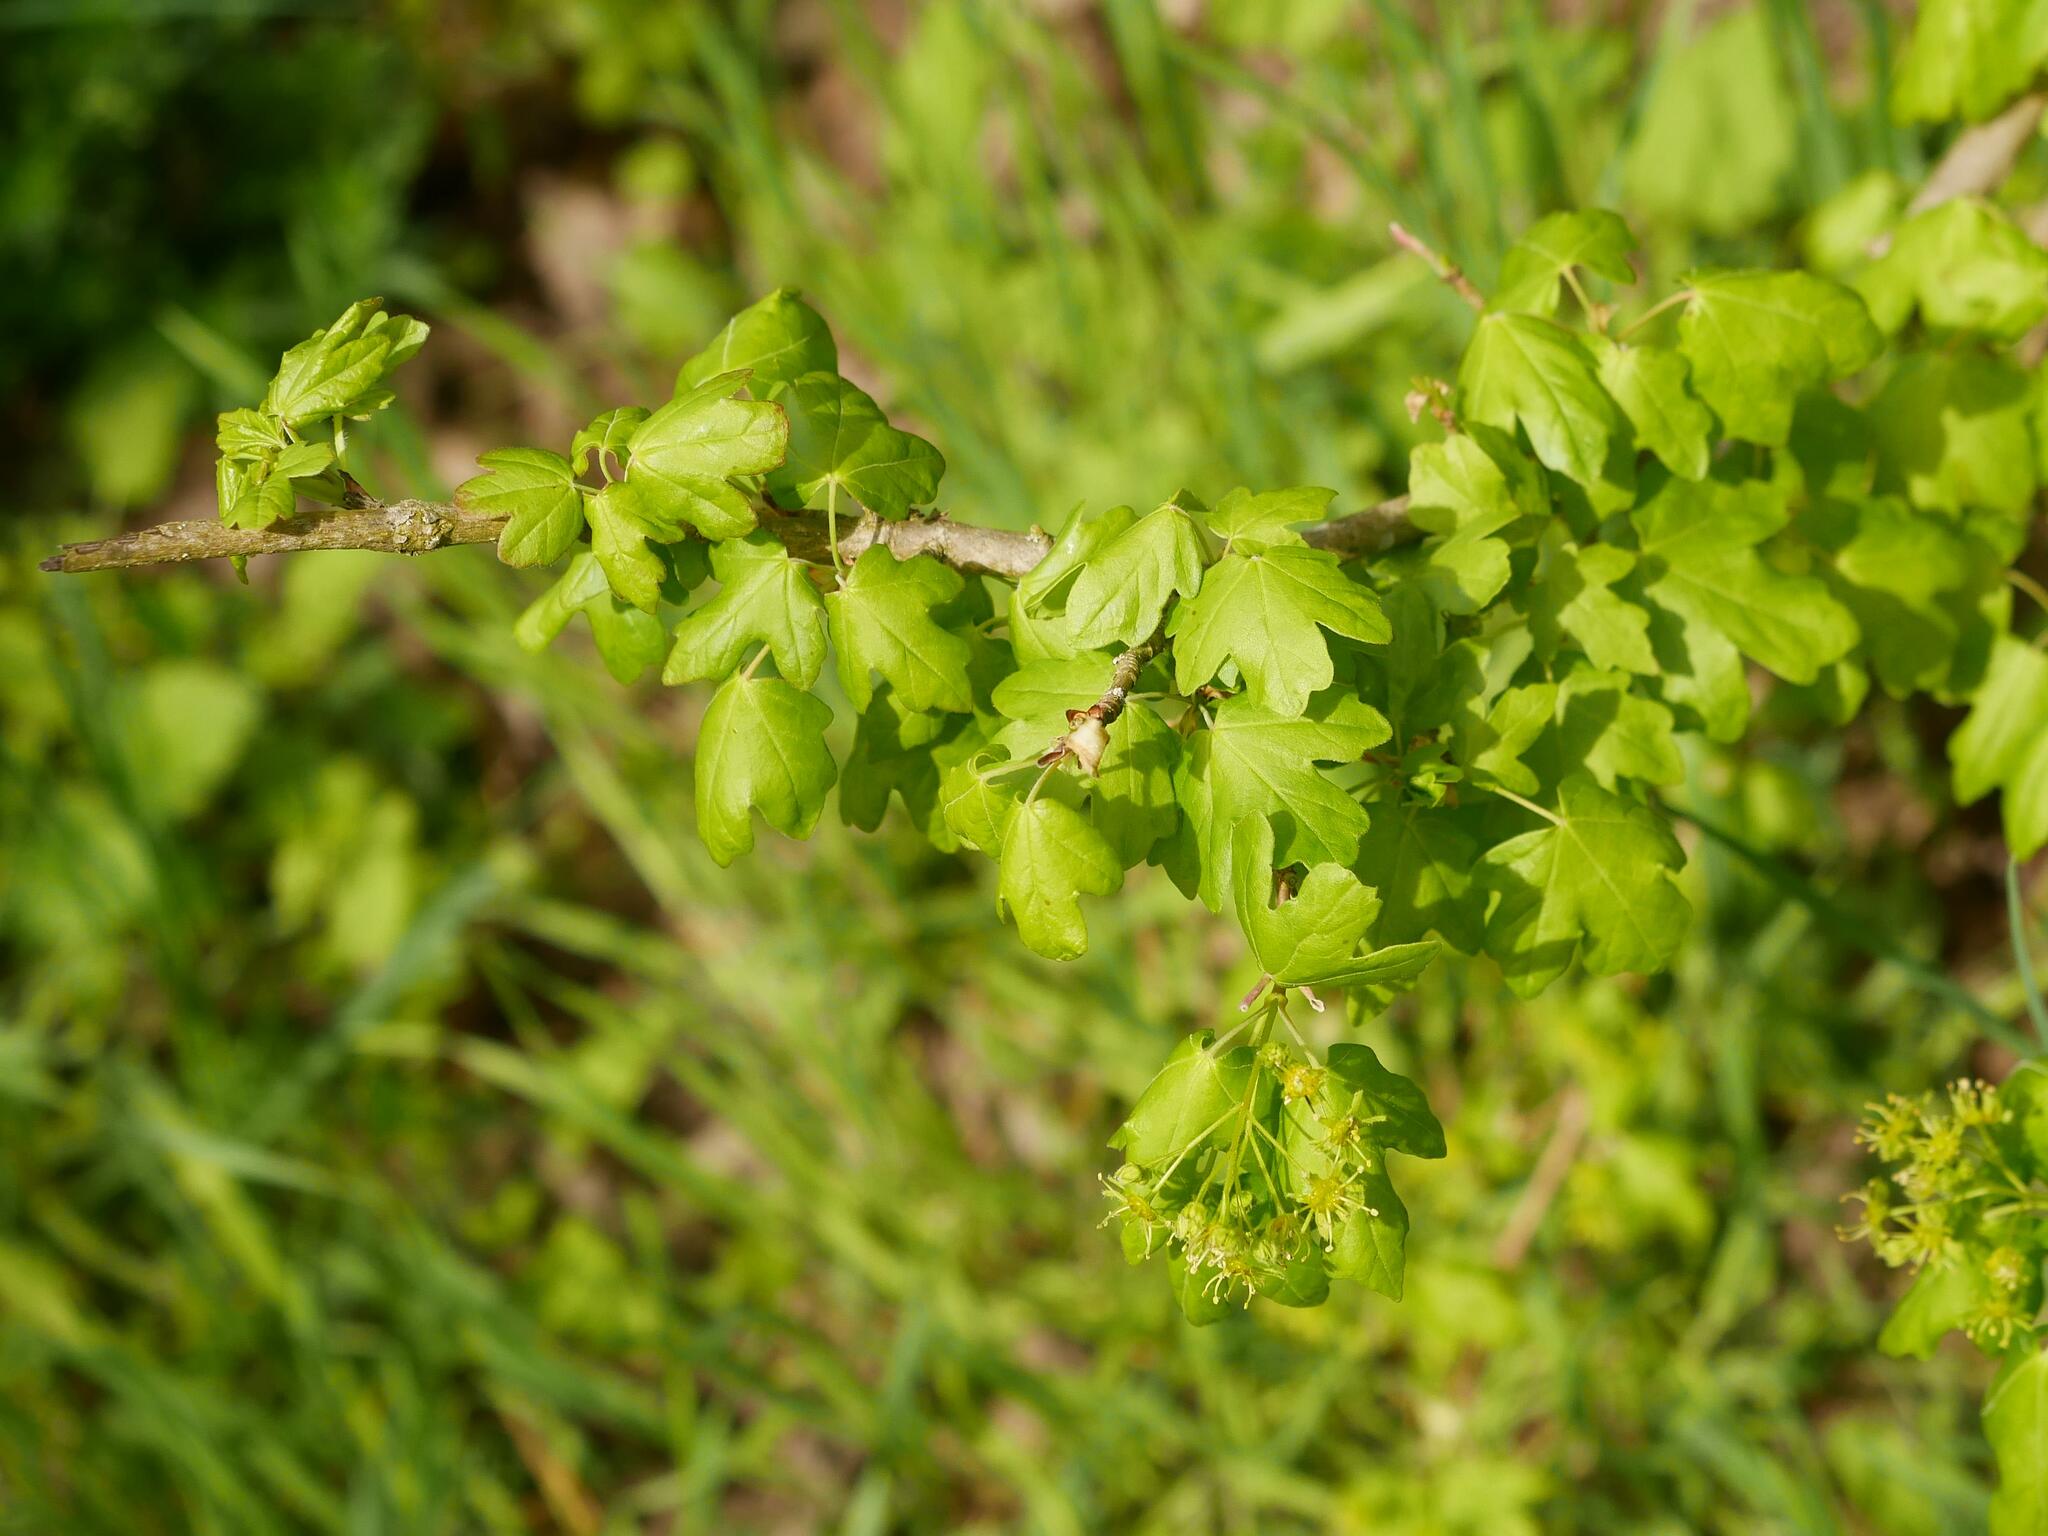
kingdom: Plantae
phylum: Tracheophyta
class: Magnoliopsida
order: Sapindales
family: Sapindaceae
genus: Acer
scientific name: Acer campestre
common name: Field maple
